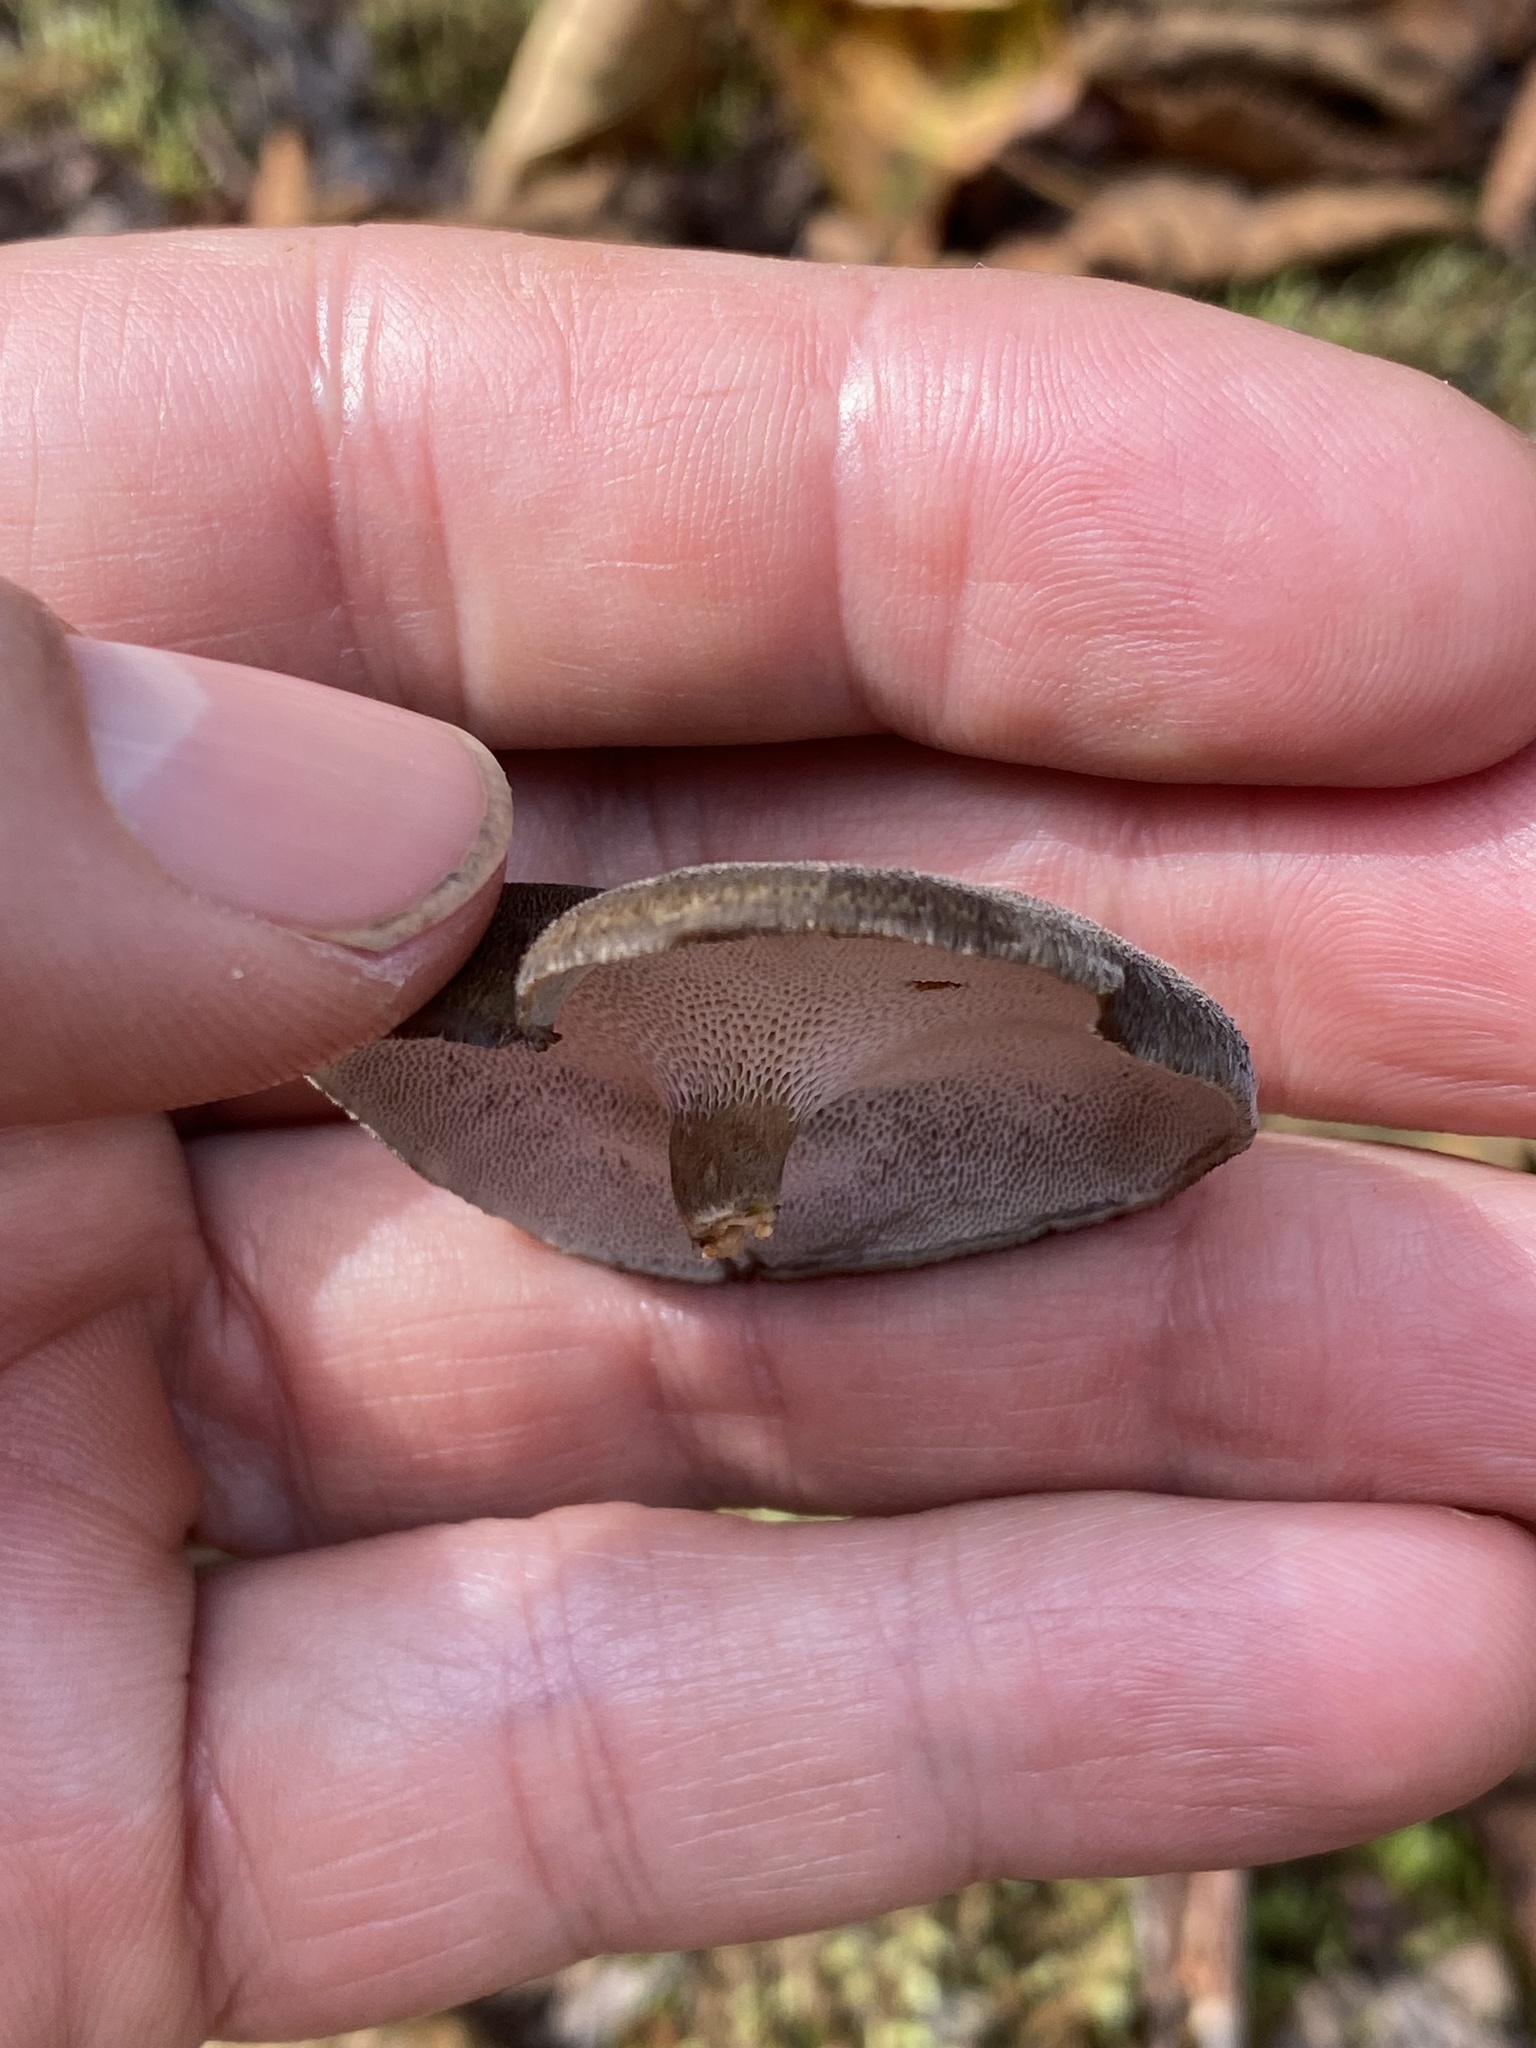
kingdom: Fungi
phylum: Basidiomycota
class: Agaricomycetes
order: Polyporales
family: Polyporaceae
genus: Lentinus
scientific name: Lentinus brumalis
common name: Winter polypore
